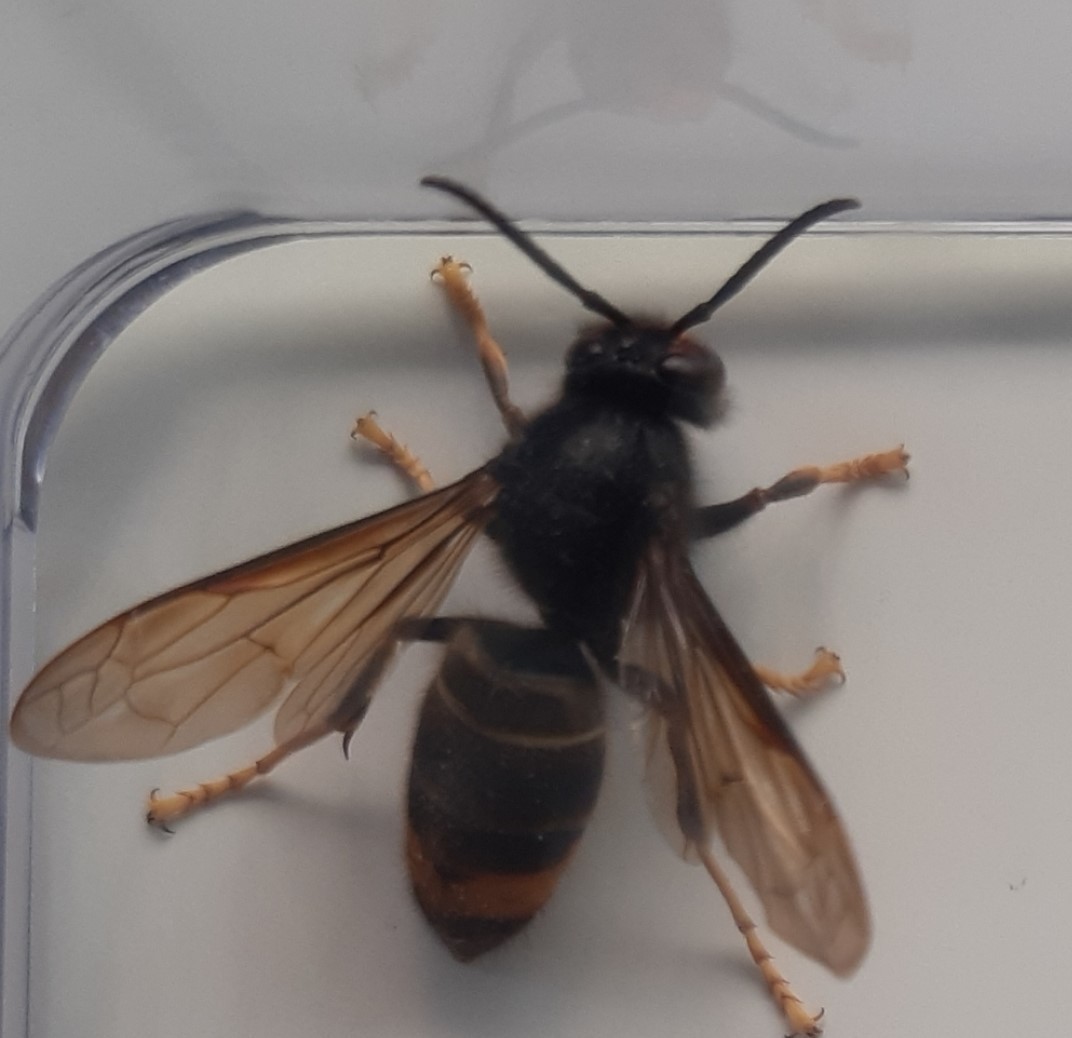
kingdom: Animalia
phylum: Arthropoda
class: Insecta
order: Hymenoptera
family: Vespidae
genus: Vespa
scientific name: Vespa velutina
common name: Asian hornet
